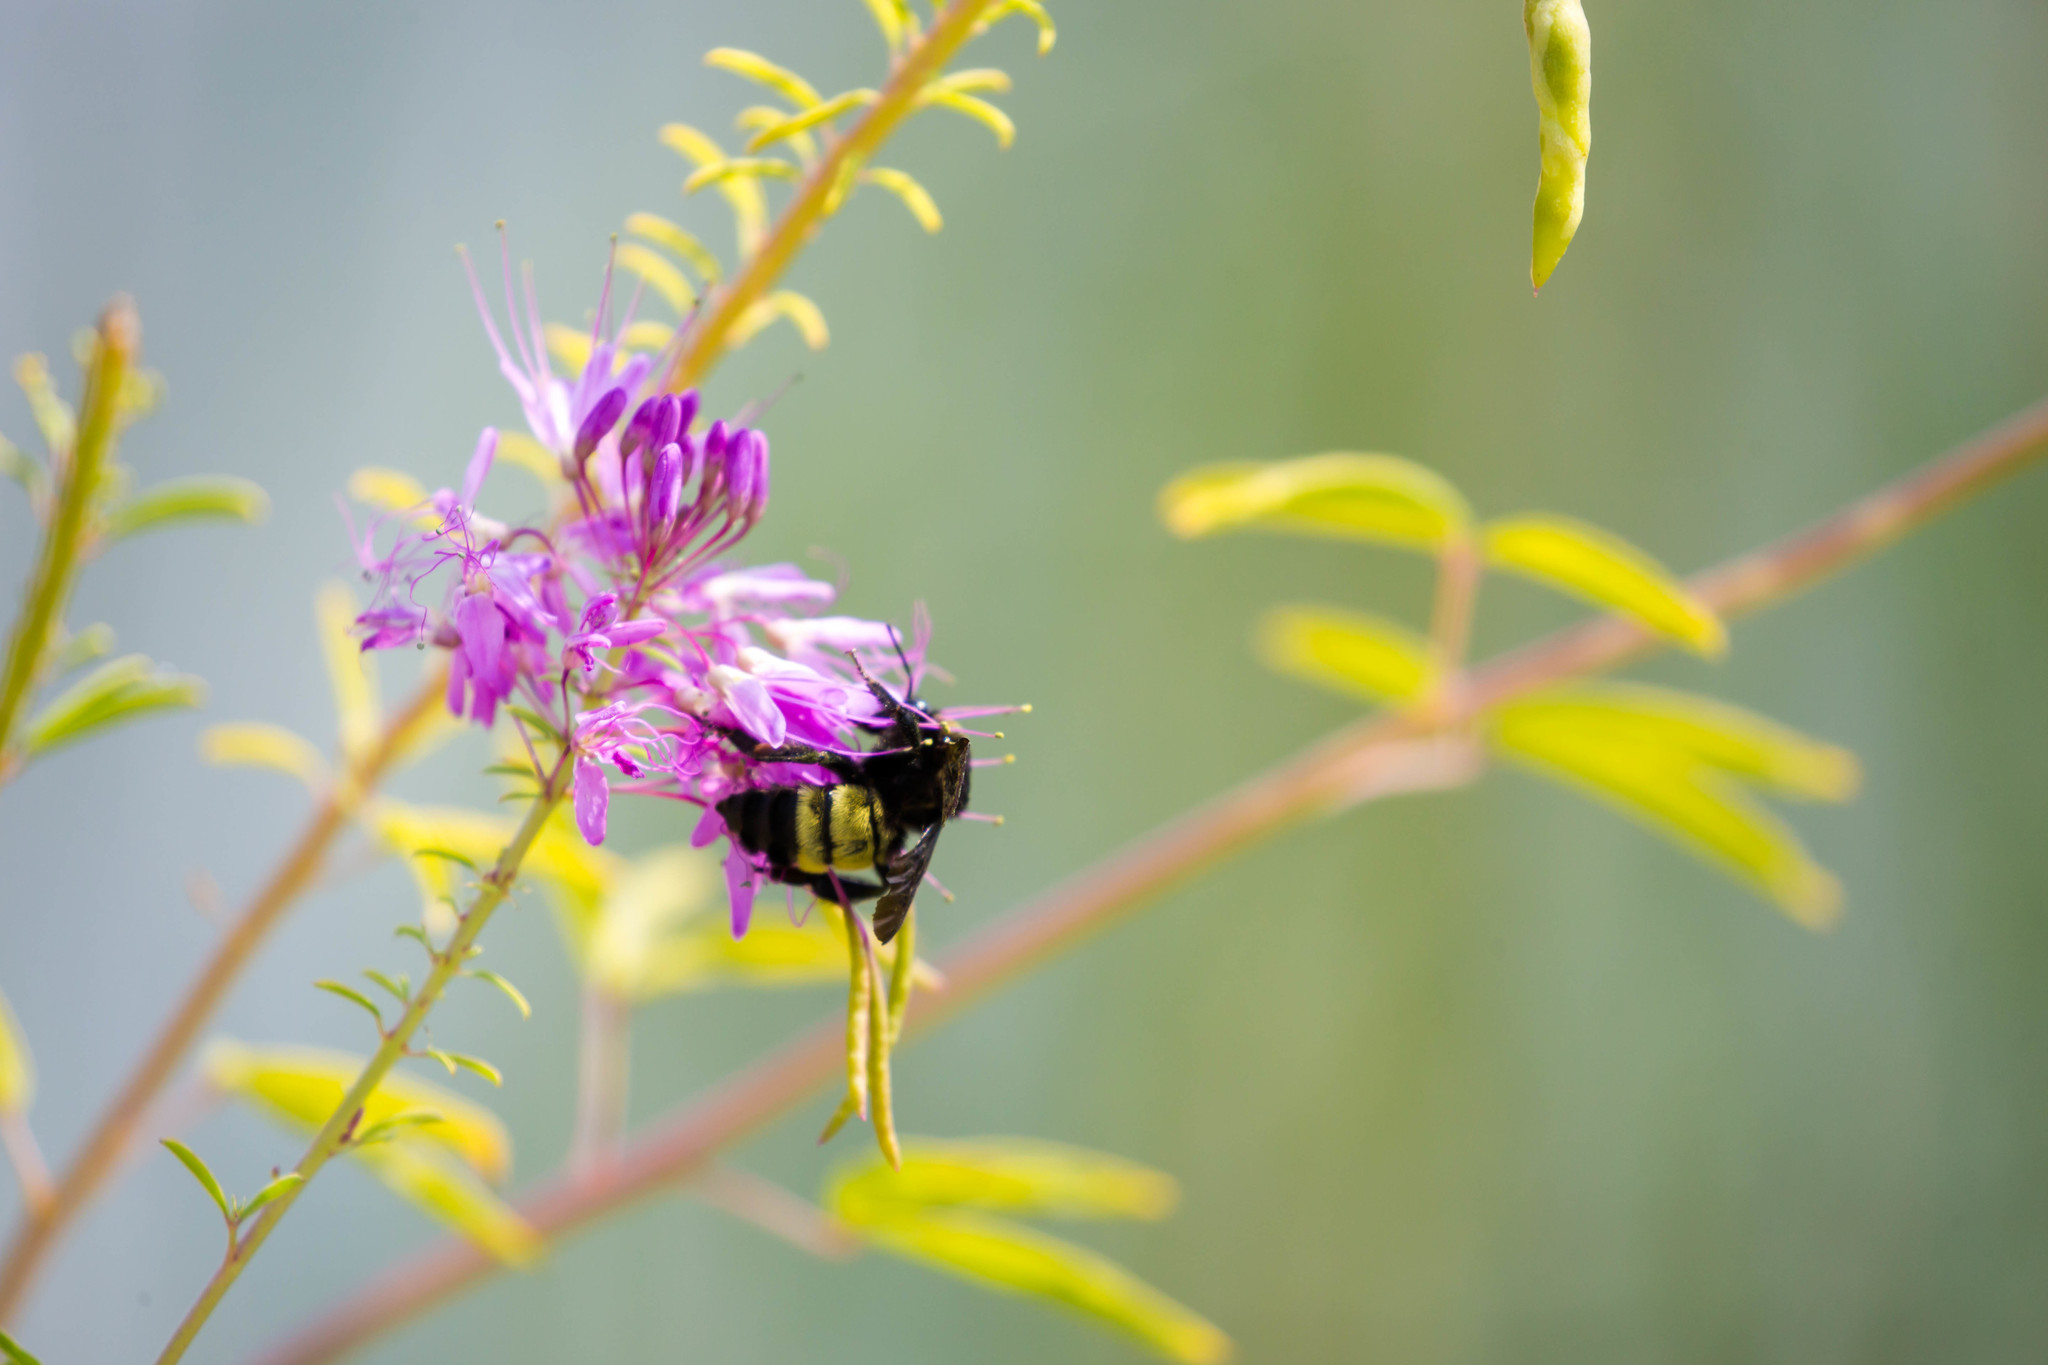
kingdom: Animalia
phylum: Arthropoda
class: Insecta
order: Hymenoptera
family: Apidae
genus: Bombus
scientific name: Bombus pensylvanicus
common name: Bumble bee
